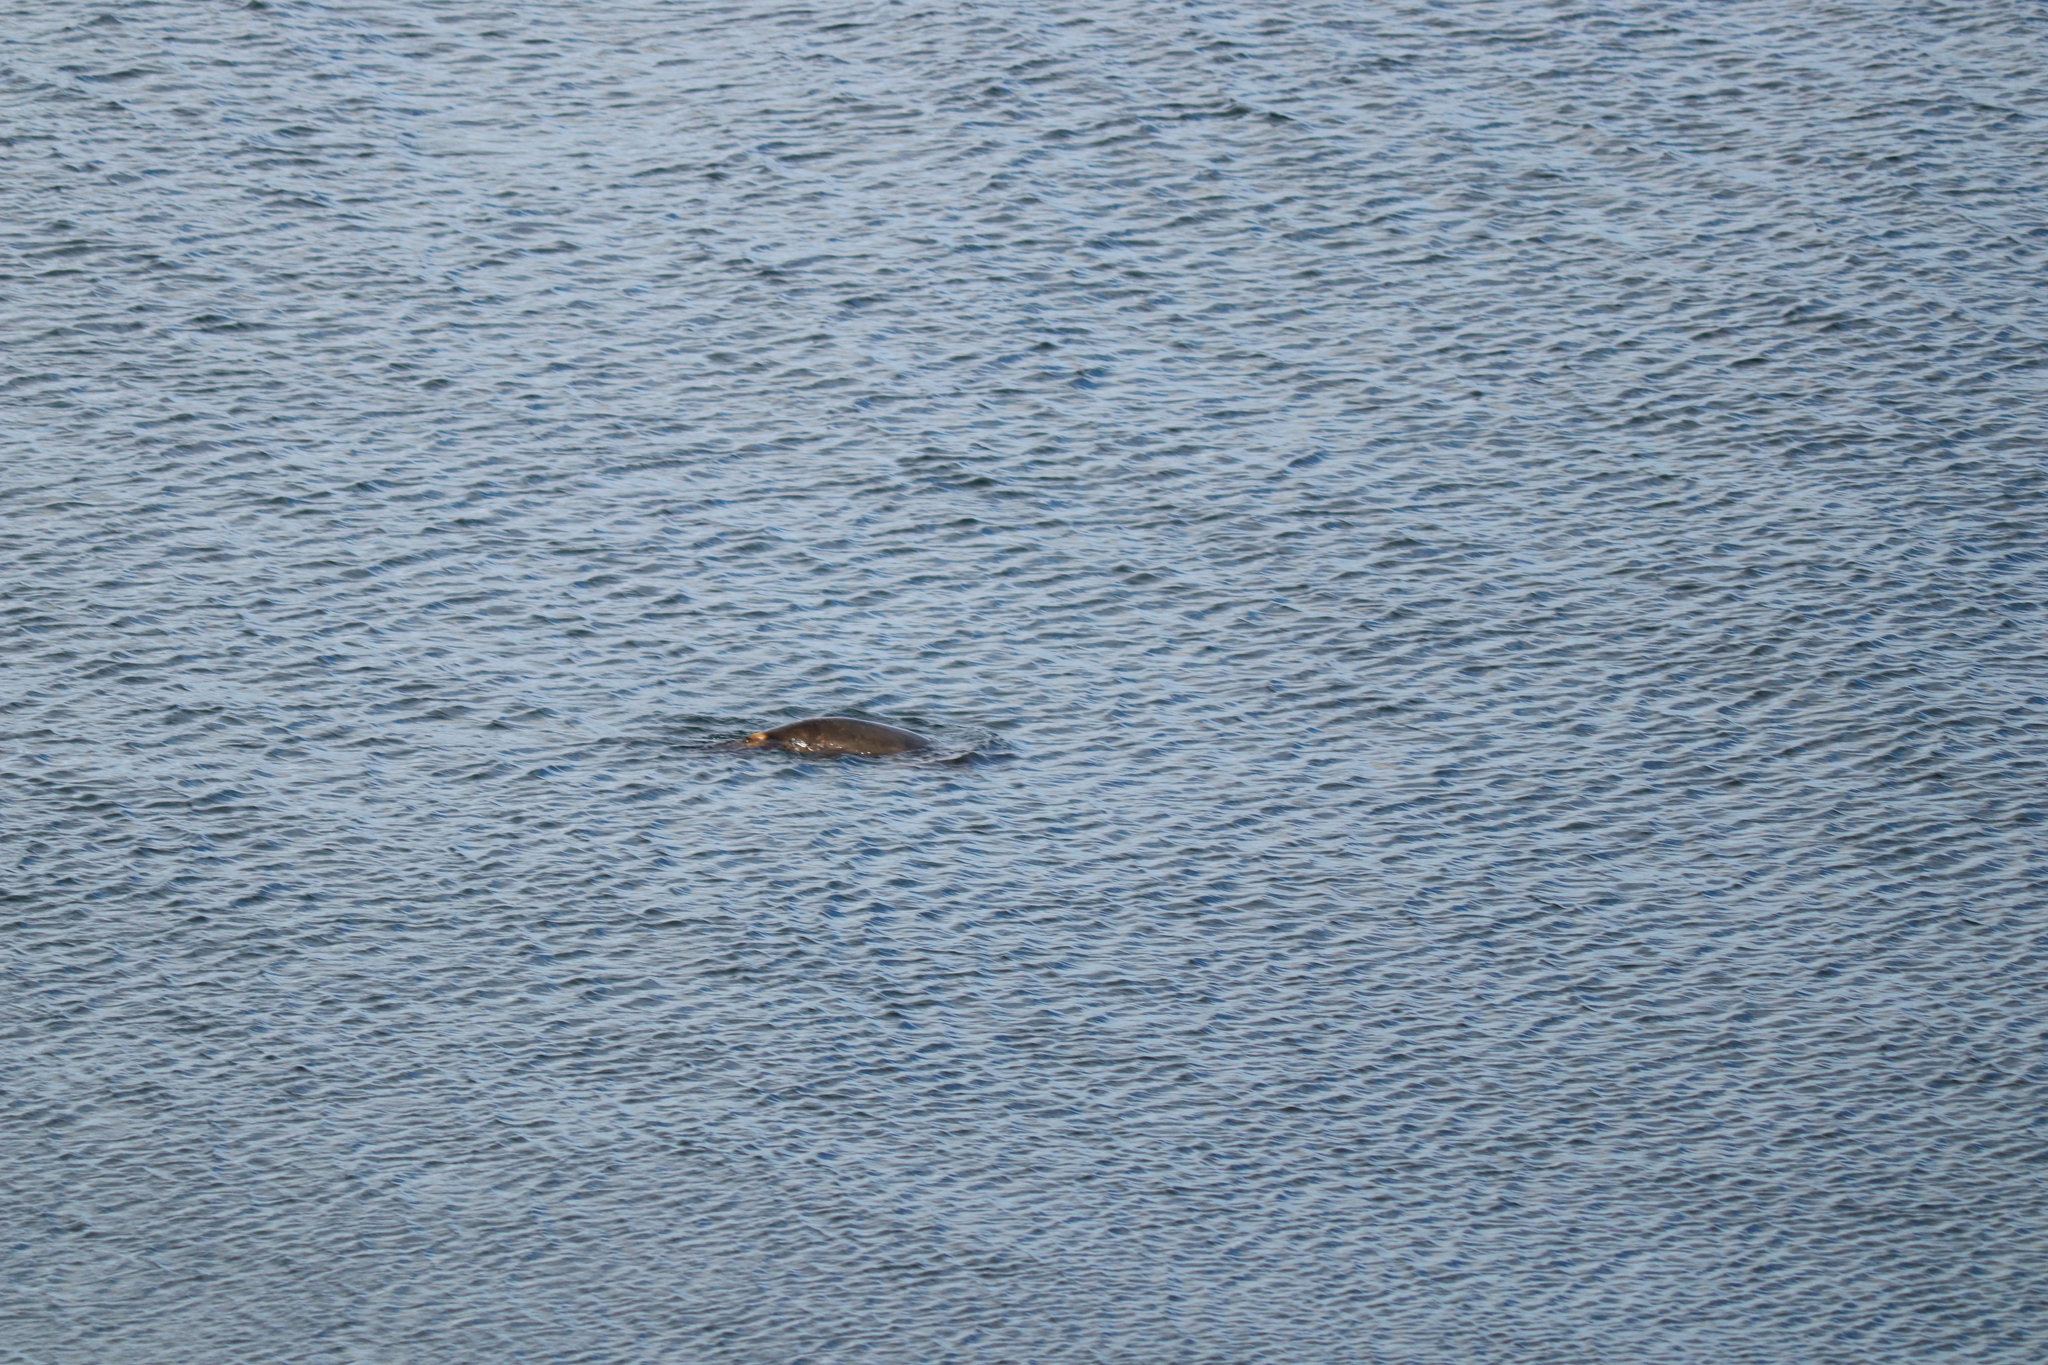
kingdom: Animalia
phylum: Chordata
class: Mammalia
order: Carnivora
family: Otariidae
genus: Otaria
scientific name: Otaria byronia
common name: South american sea lion
